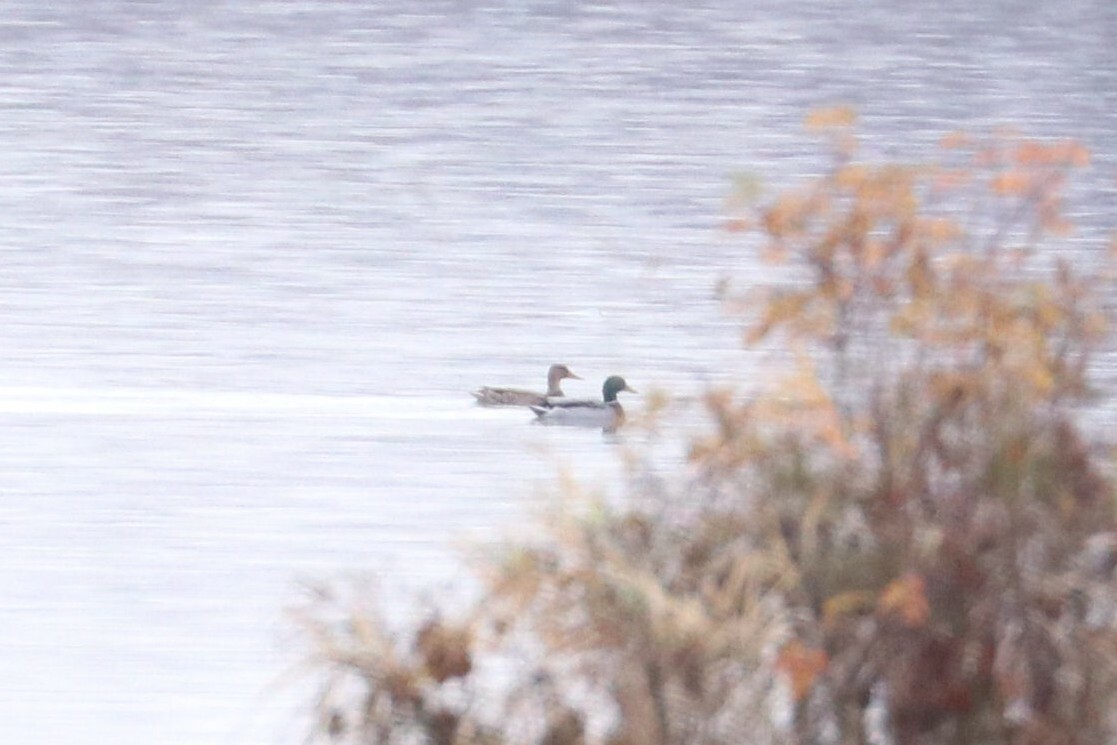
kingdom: Animalia
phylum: Chordata
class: Aves
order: Anseriformes
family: Anatidae
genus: Anas
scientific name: Anas platyrhynchos
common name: Mallard
